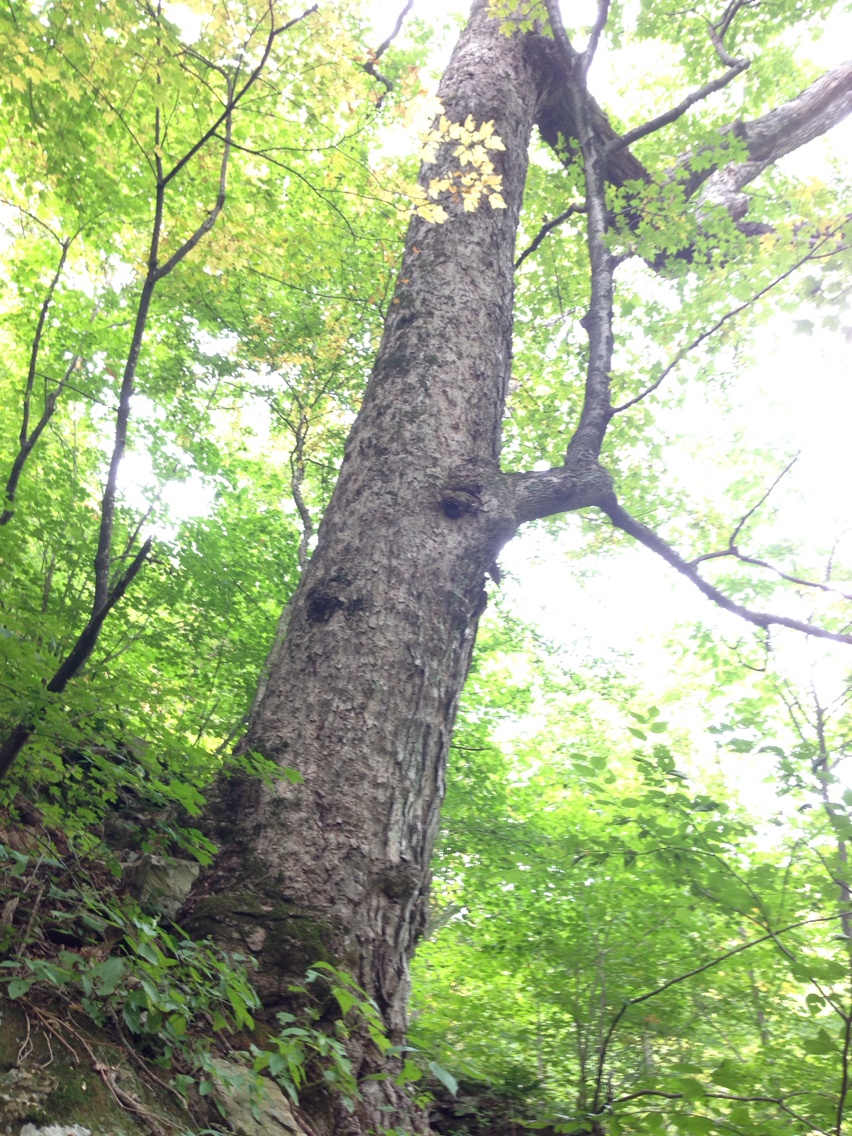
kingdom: Plantae
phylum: Tracheophyta
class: Magnoliopsida
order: Sapindales
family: Sapindaceae
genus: Acer
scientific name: Acer saccharum
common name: Sugar maple
